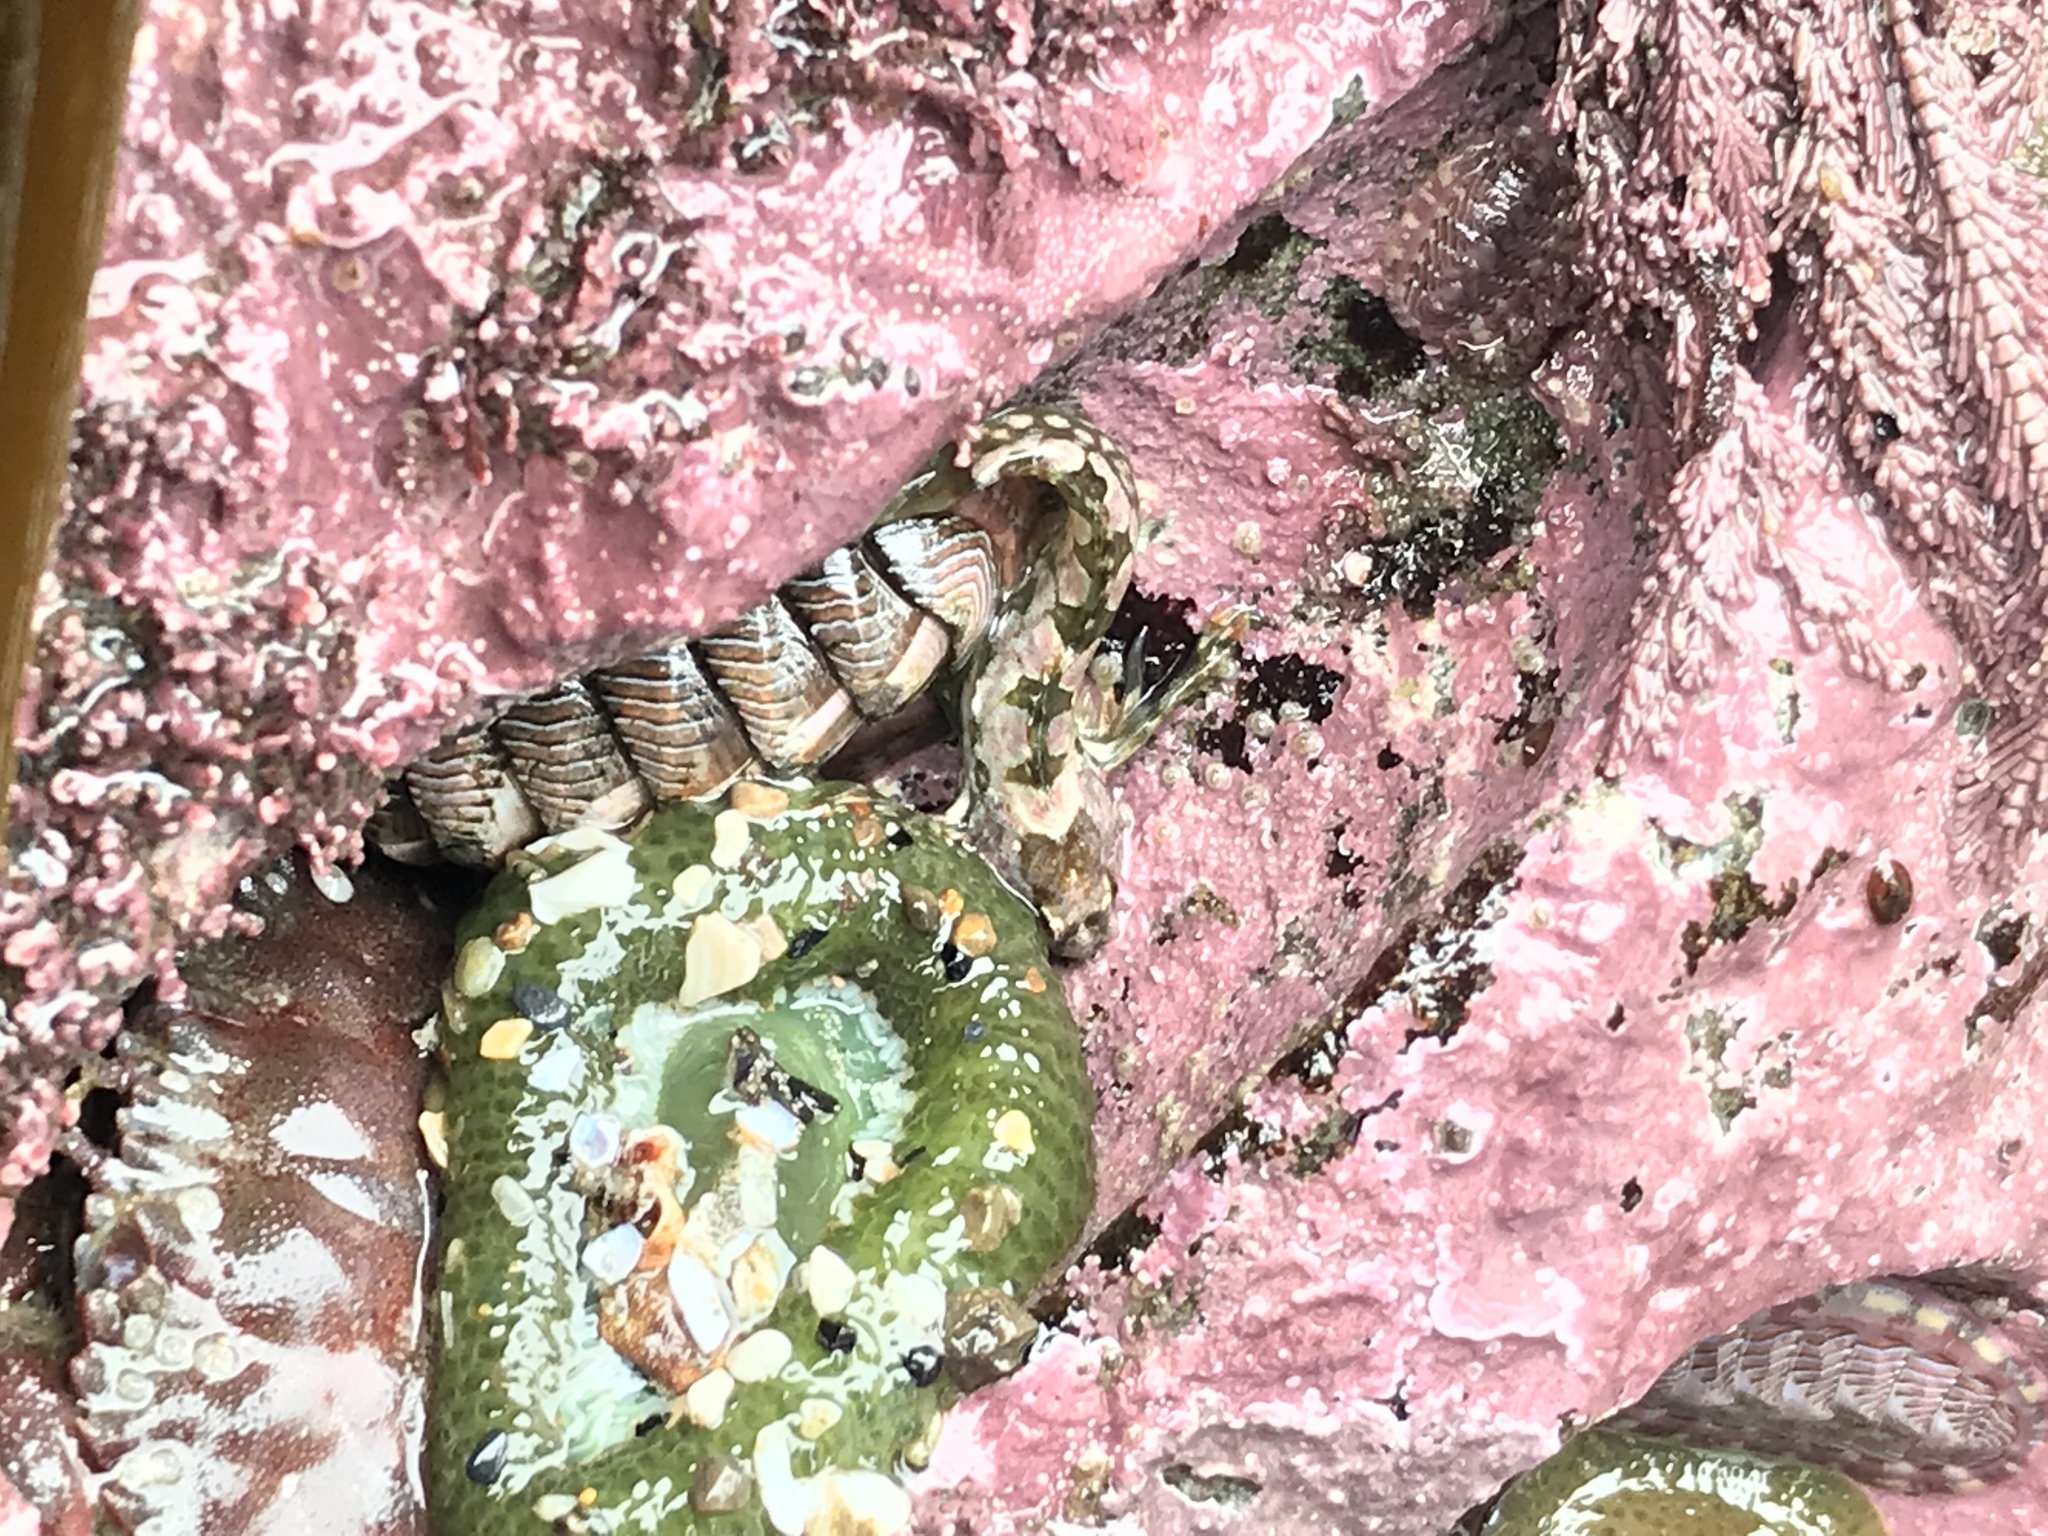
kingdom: Animalia
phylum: Chordata
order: Scorpaeniformes
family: Cottidae
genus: Clinocottus
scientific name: Clinocottus embryum
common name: Calico sculpin
